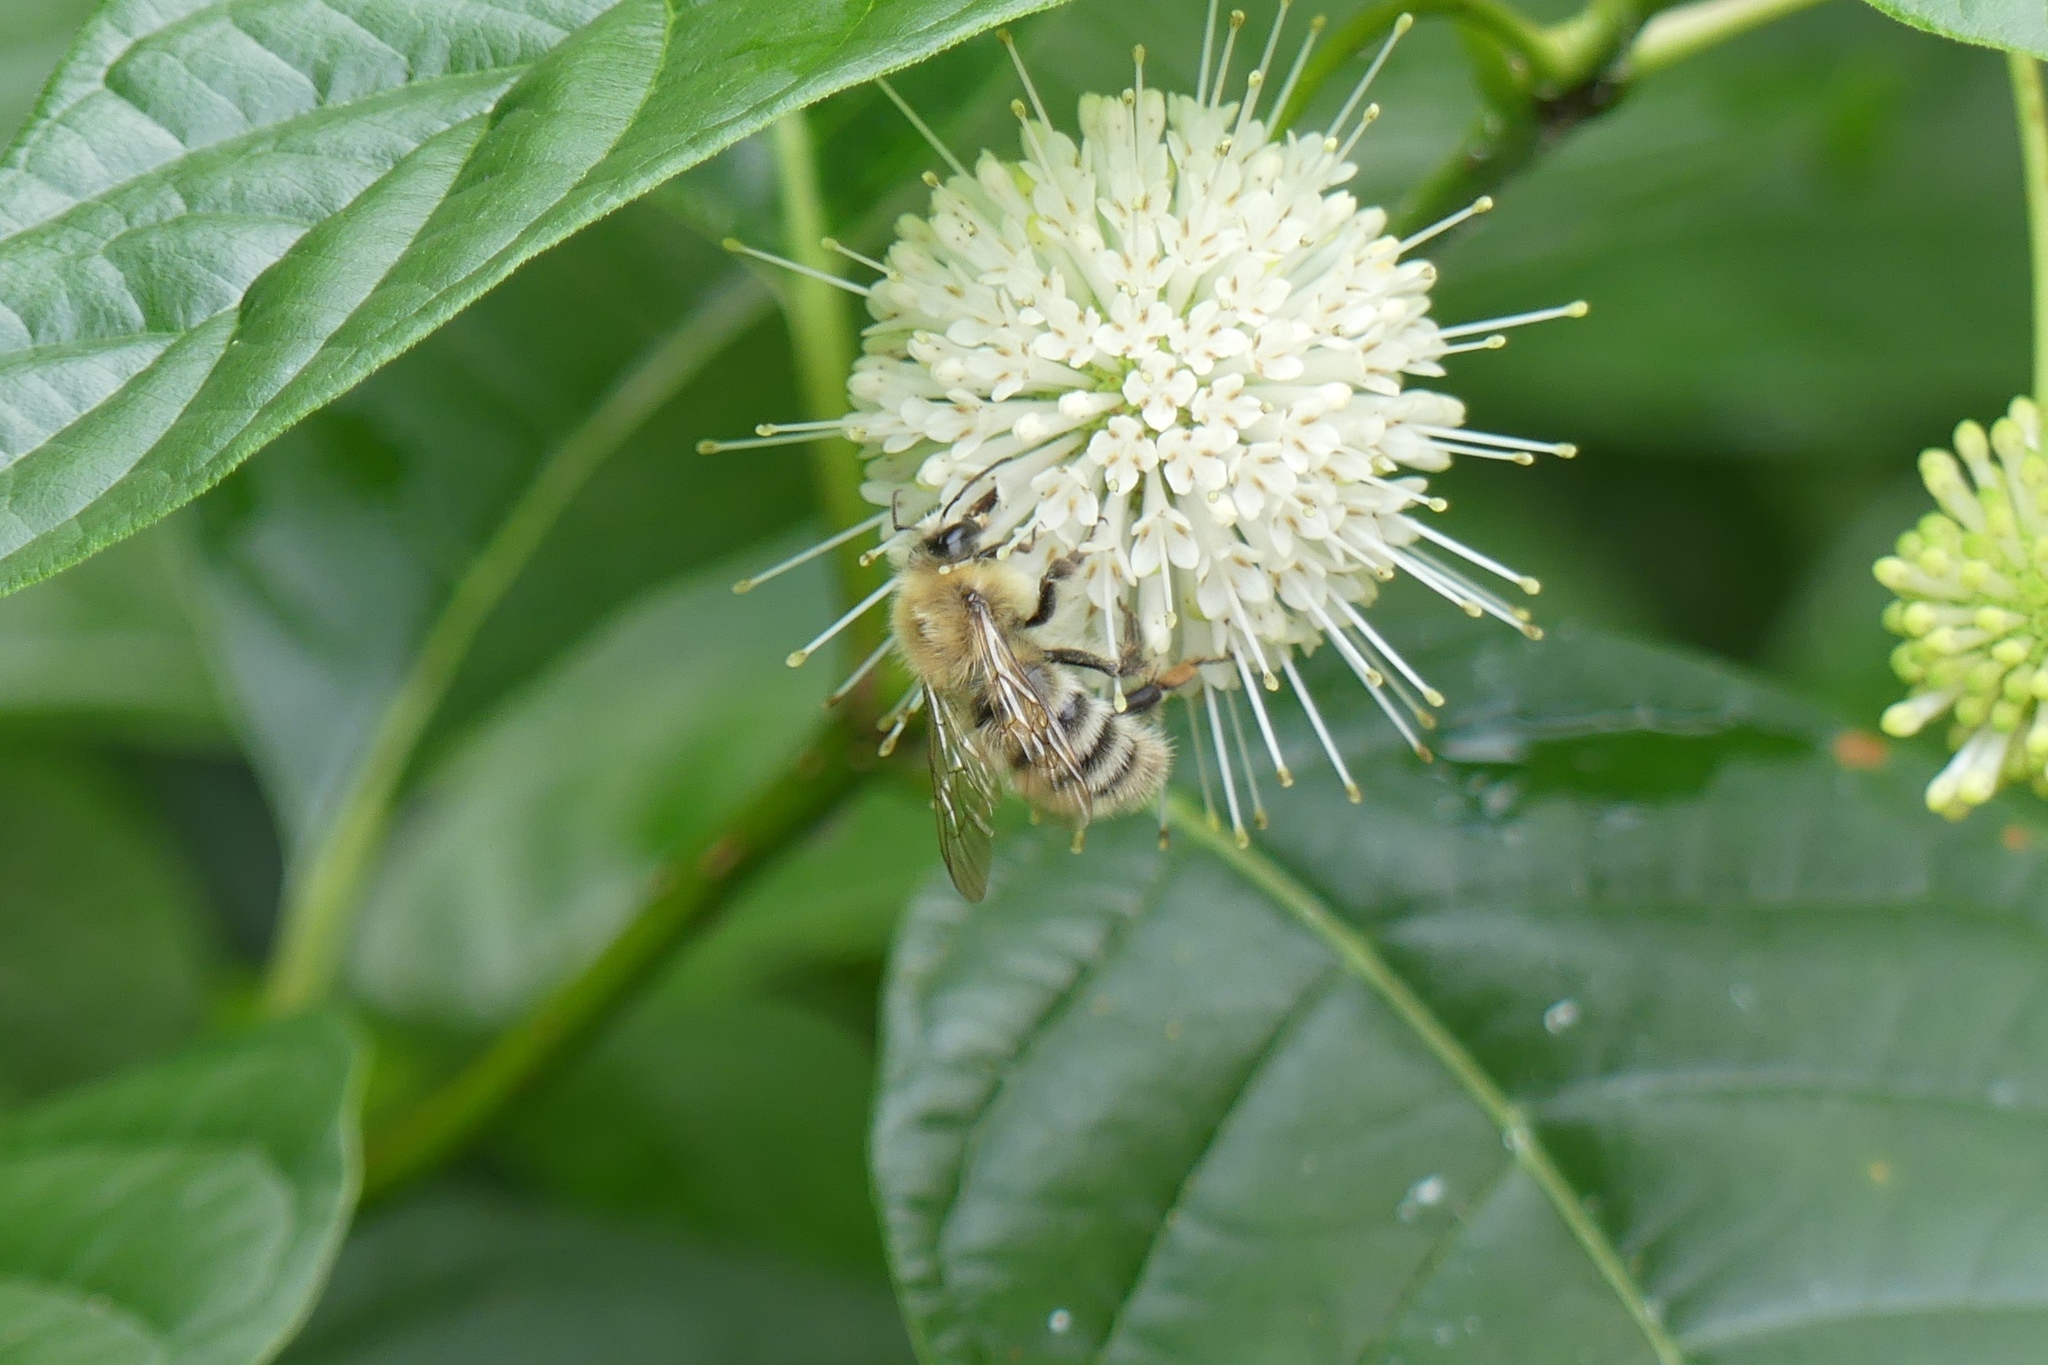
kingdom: Animalia
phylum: Arthropoda
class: Insecta
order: Hymenoptera
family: Apidae
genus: Bombus
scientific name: Bombus perplexus
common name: Confusing bumble bee
